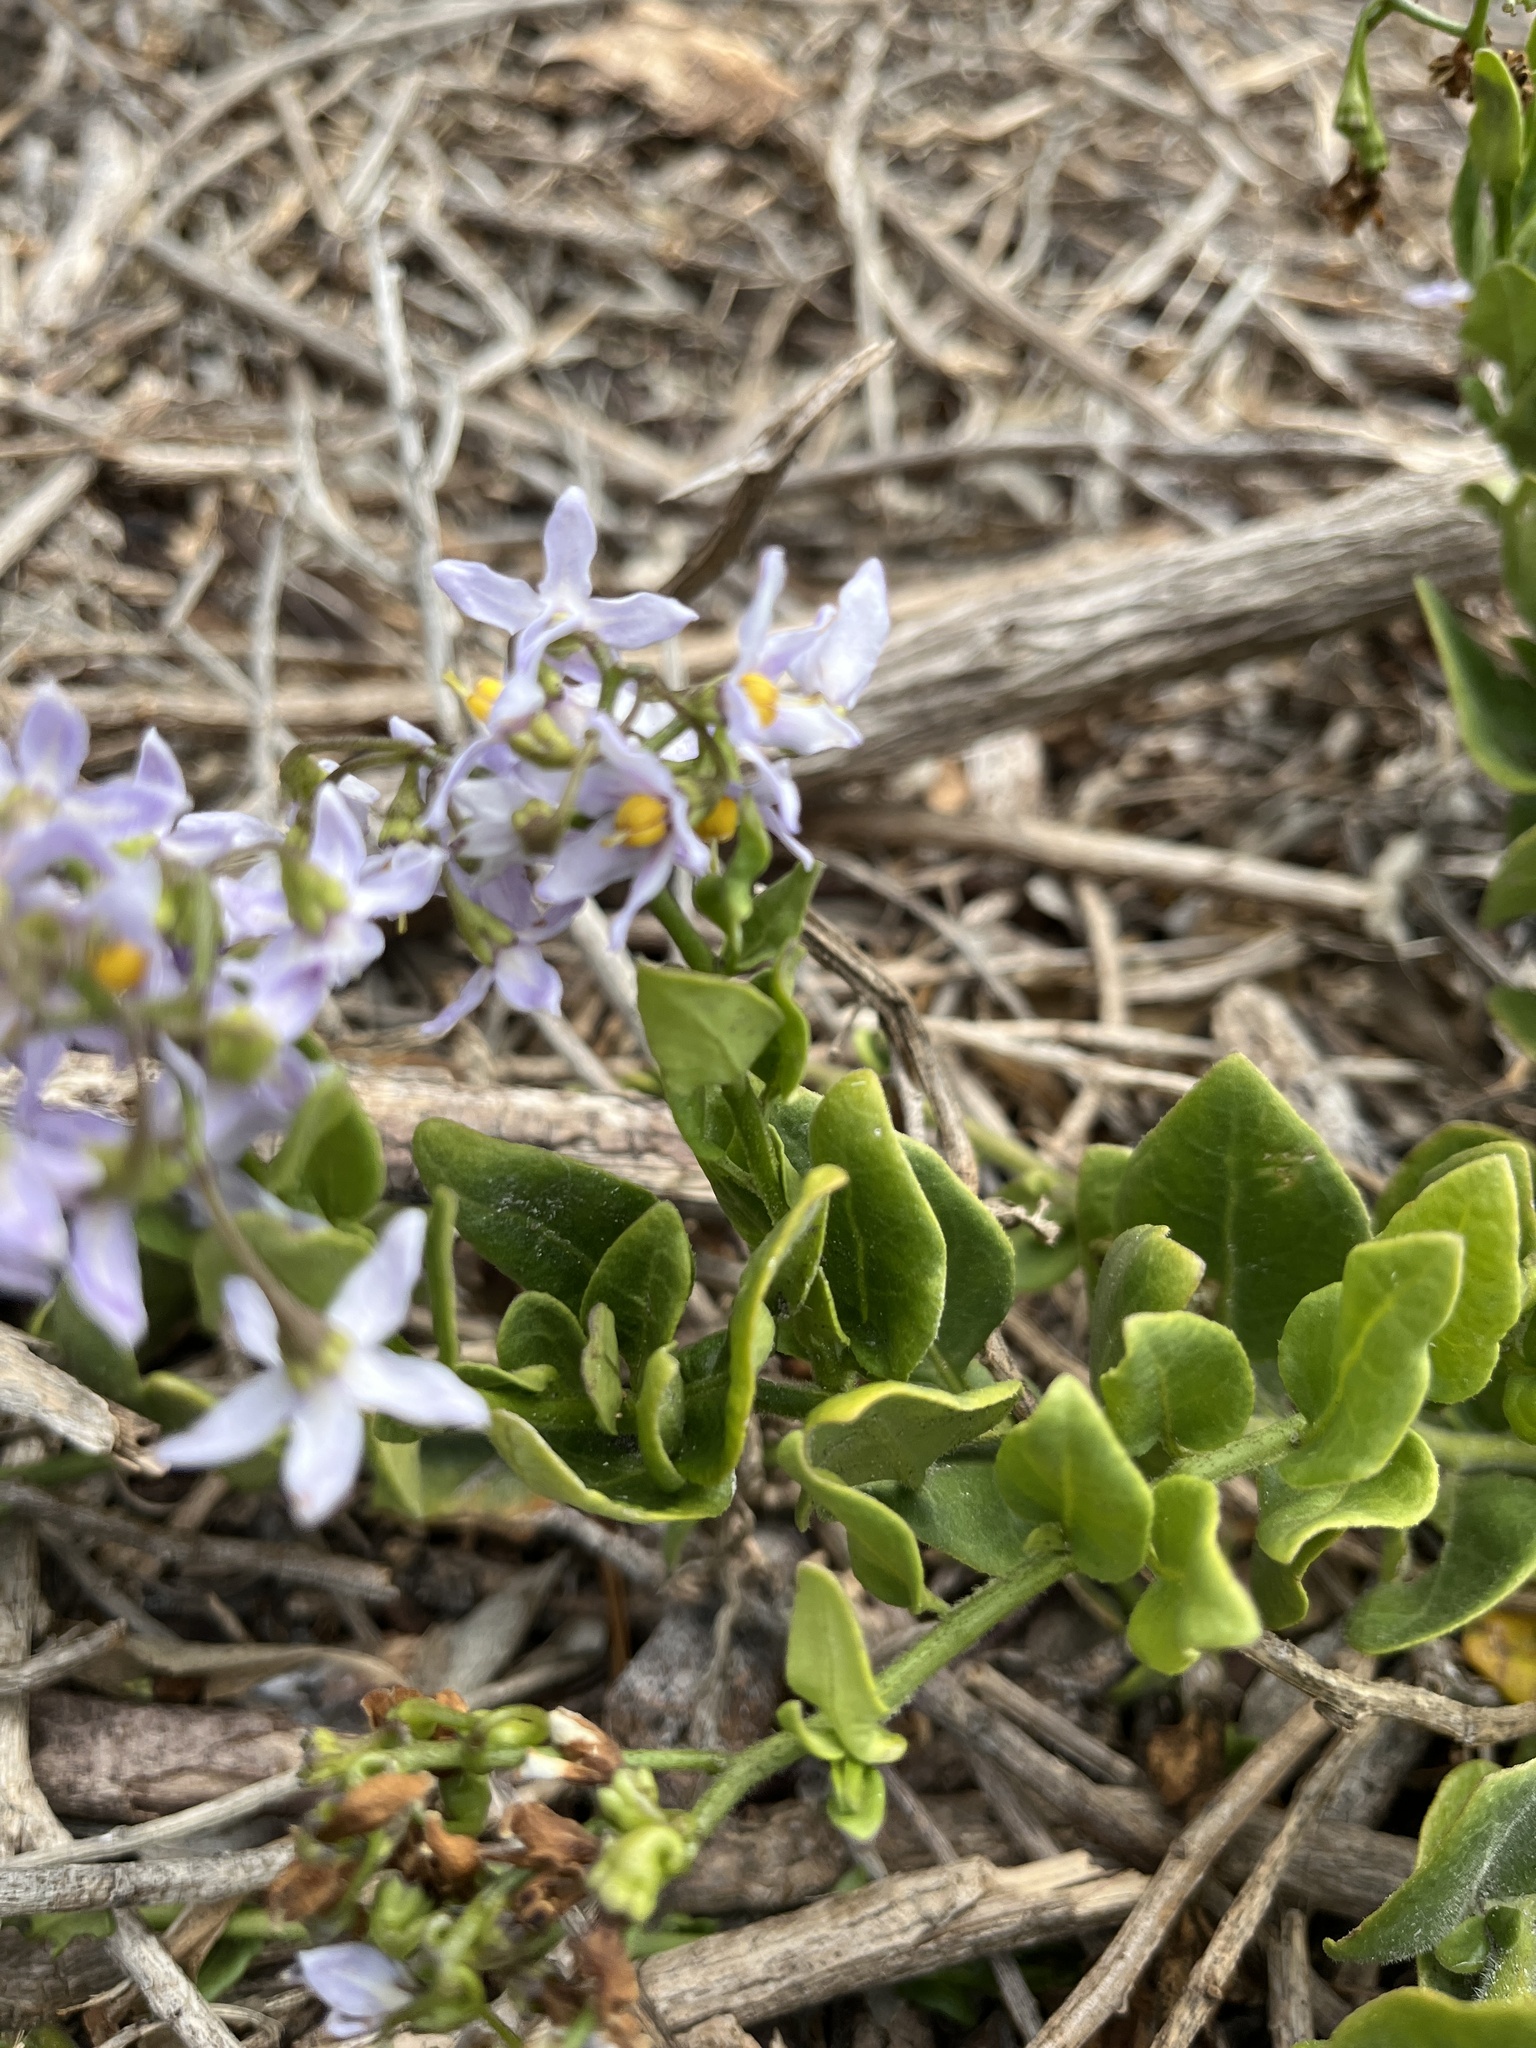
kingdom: Plantae
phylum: Tracheophyta
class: Magnoliopsida
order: Solanales
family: Solanaceae
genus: Solanum
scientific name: Solanum africanum
